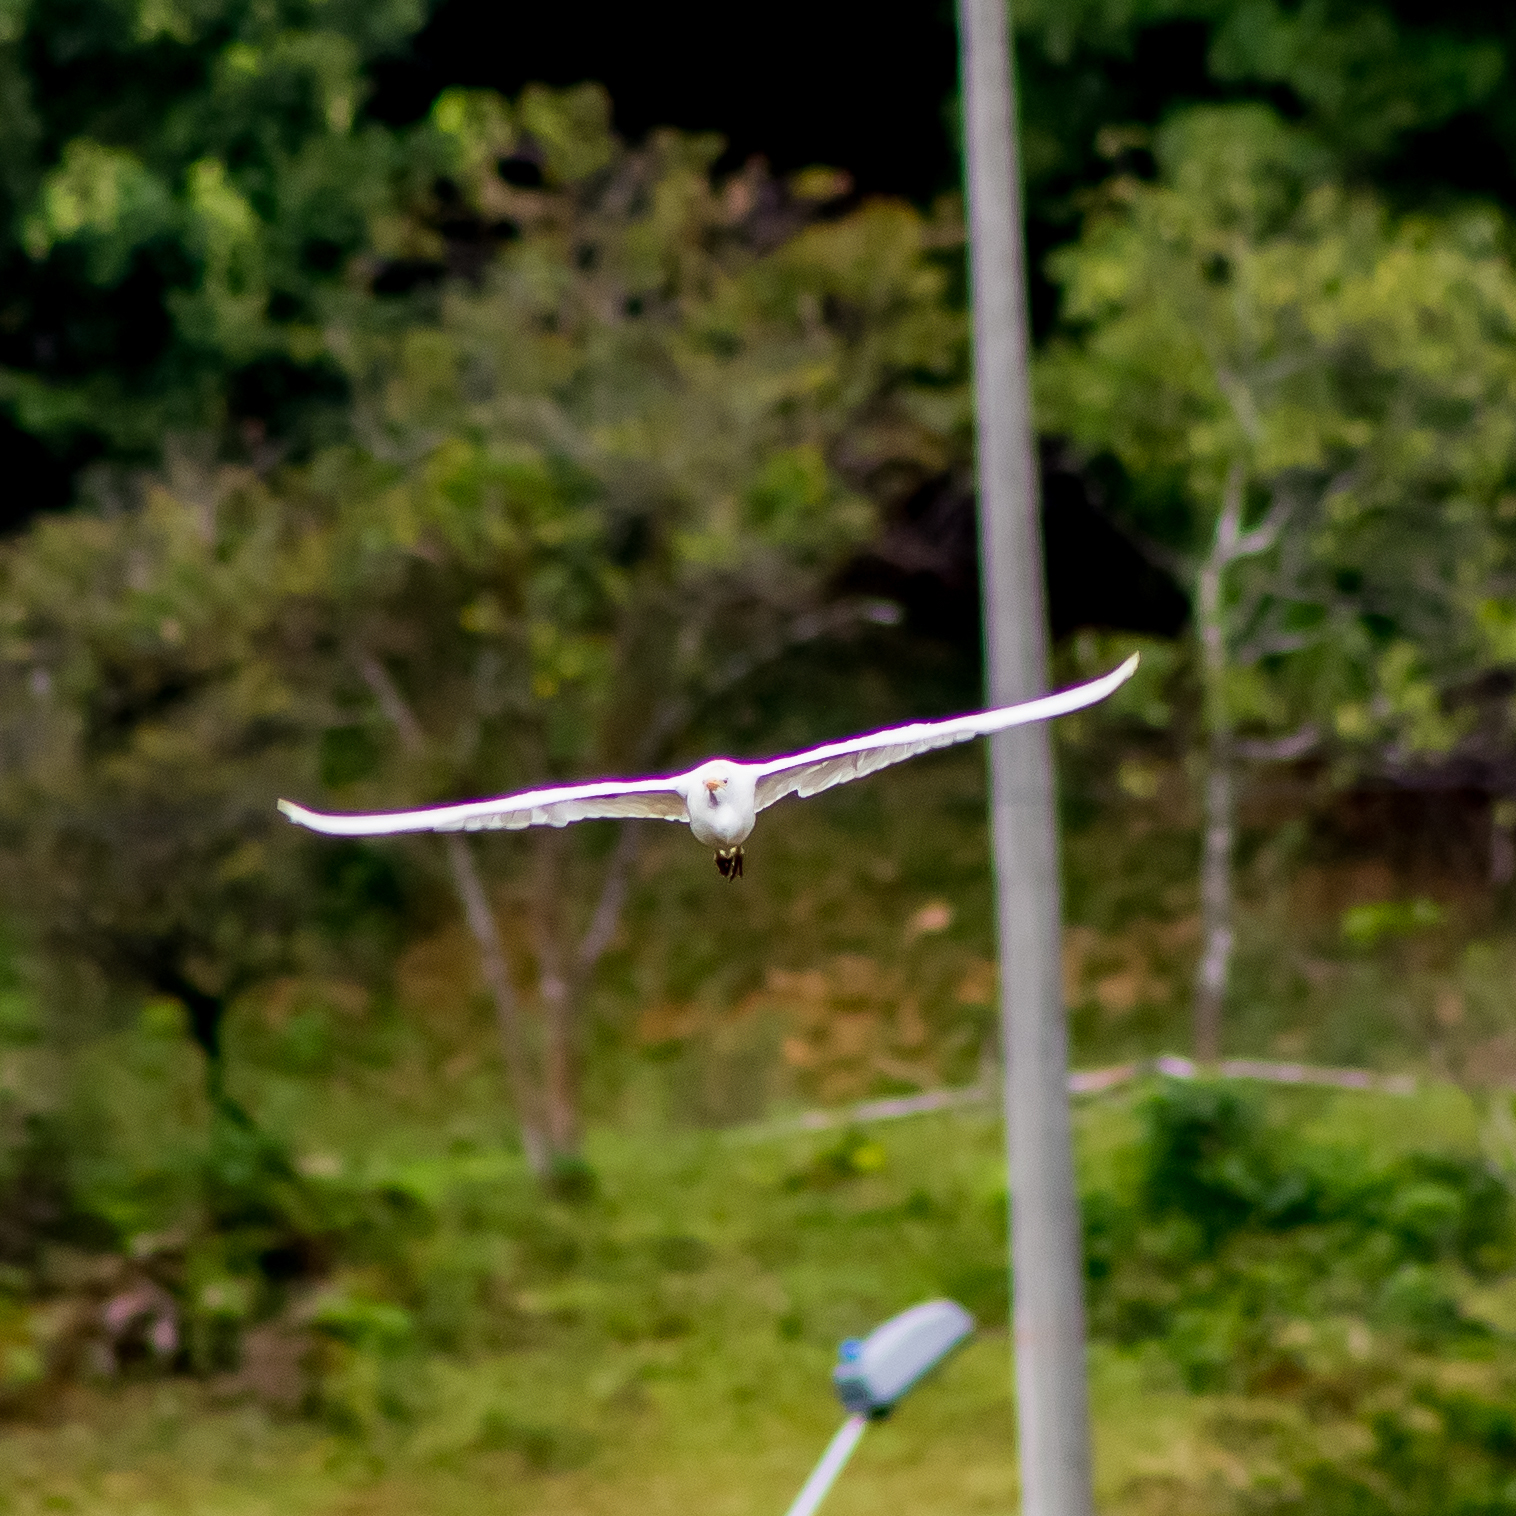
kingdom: Animalia
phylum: Chordata
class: Aves
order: Pelecaniformes
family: Ardeidae
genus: Bubulcus
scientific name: Bubulcus ibis
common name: Cattle egret
